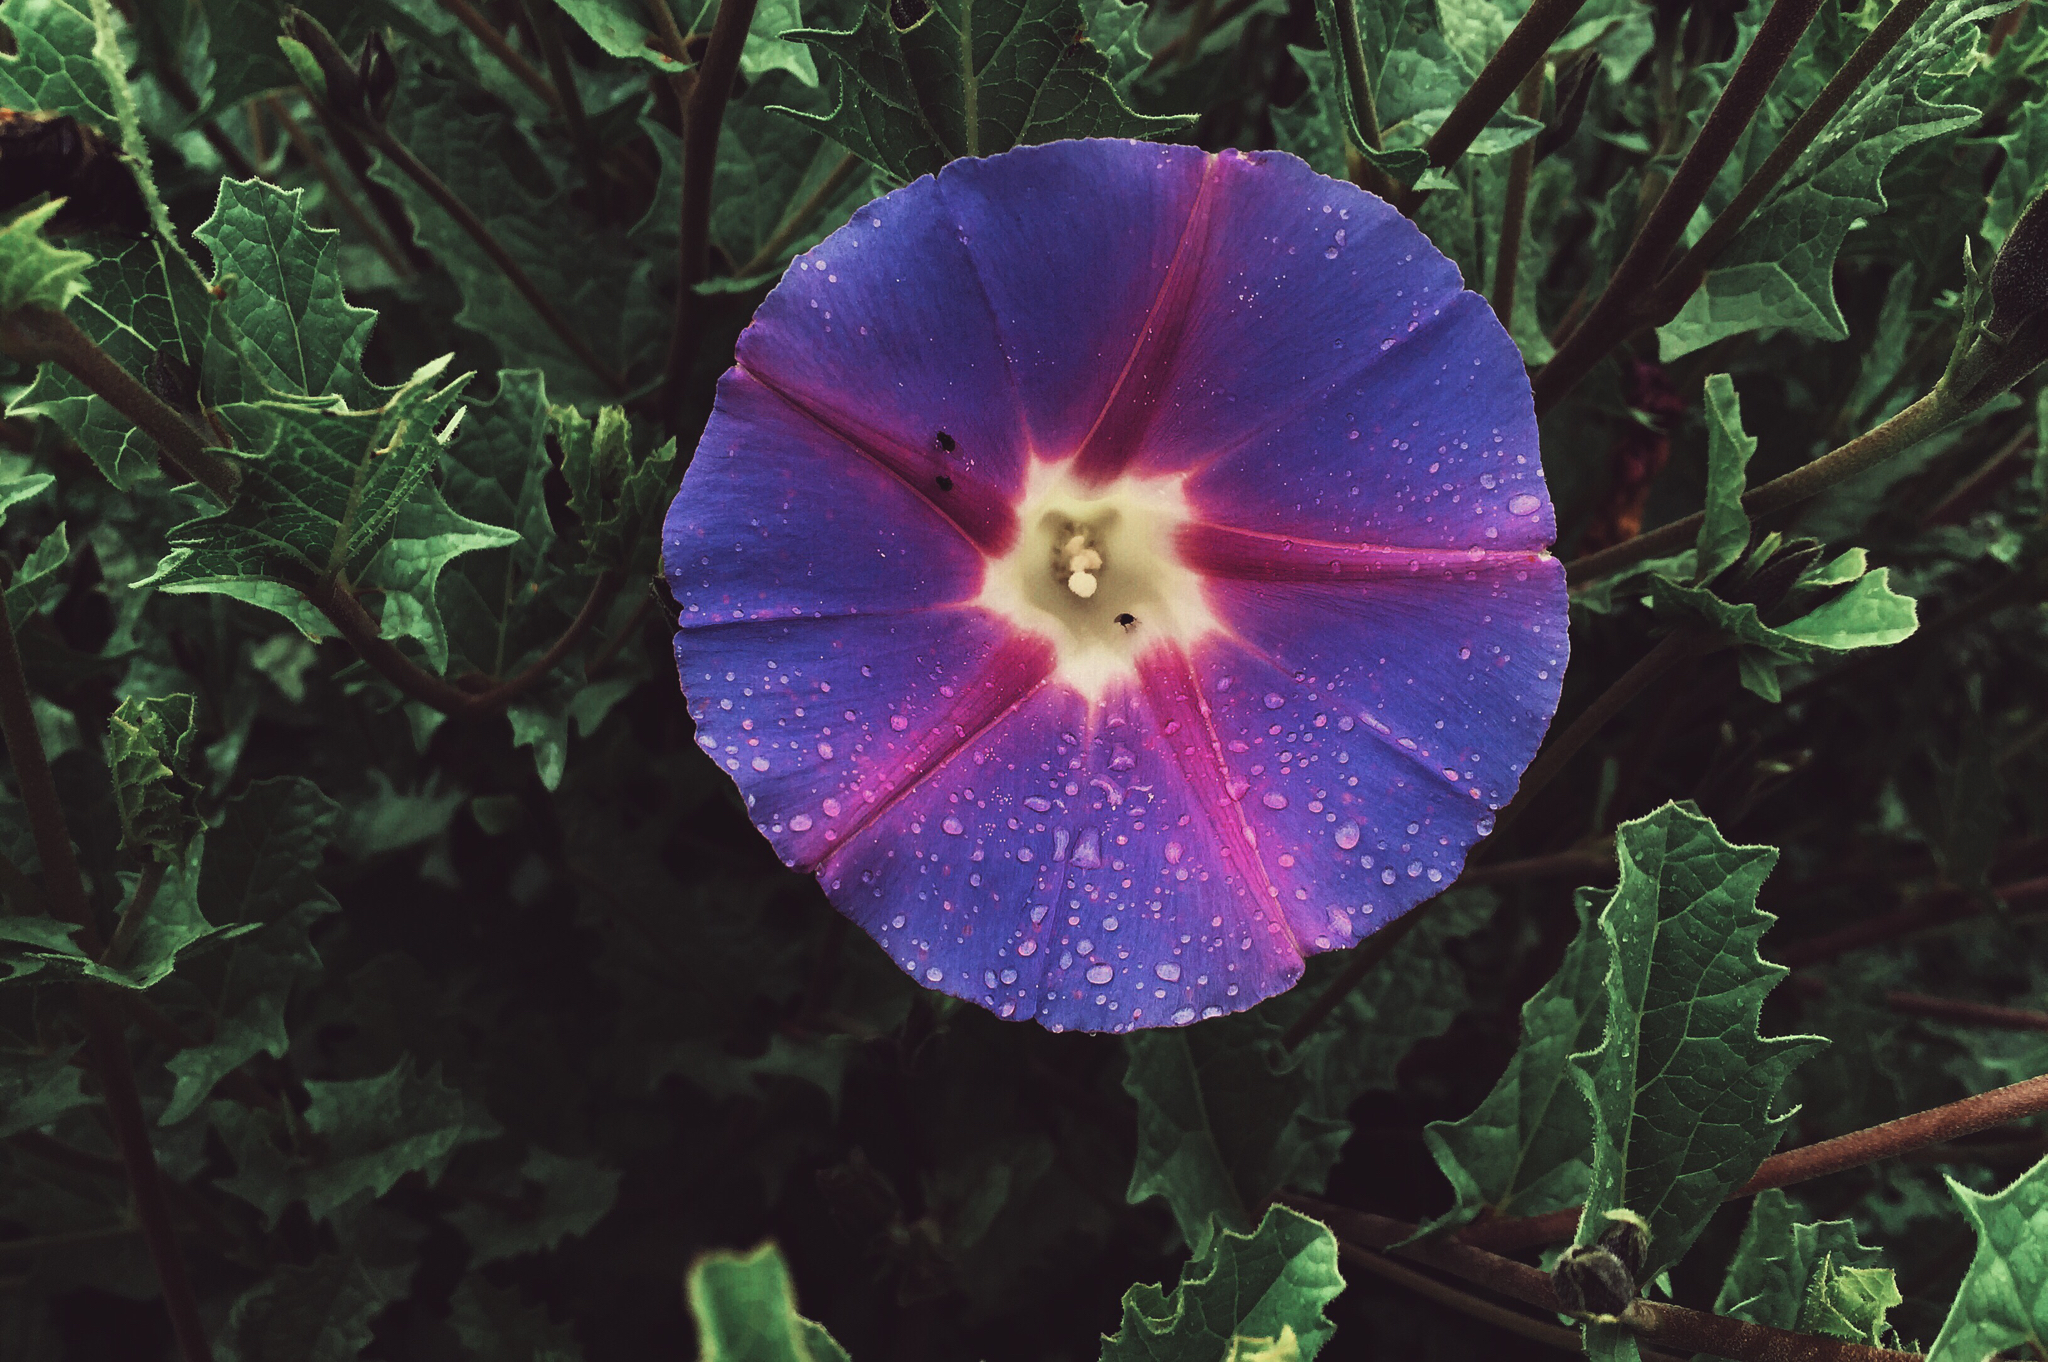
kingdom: Plantae
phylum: Tracheophyta
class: Magnoliopsida
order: Solanales
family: Convolvulaceae
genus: Ipomoea
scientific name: Ipomoea stans
